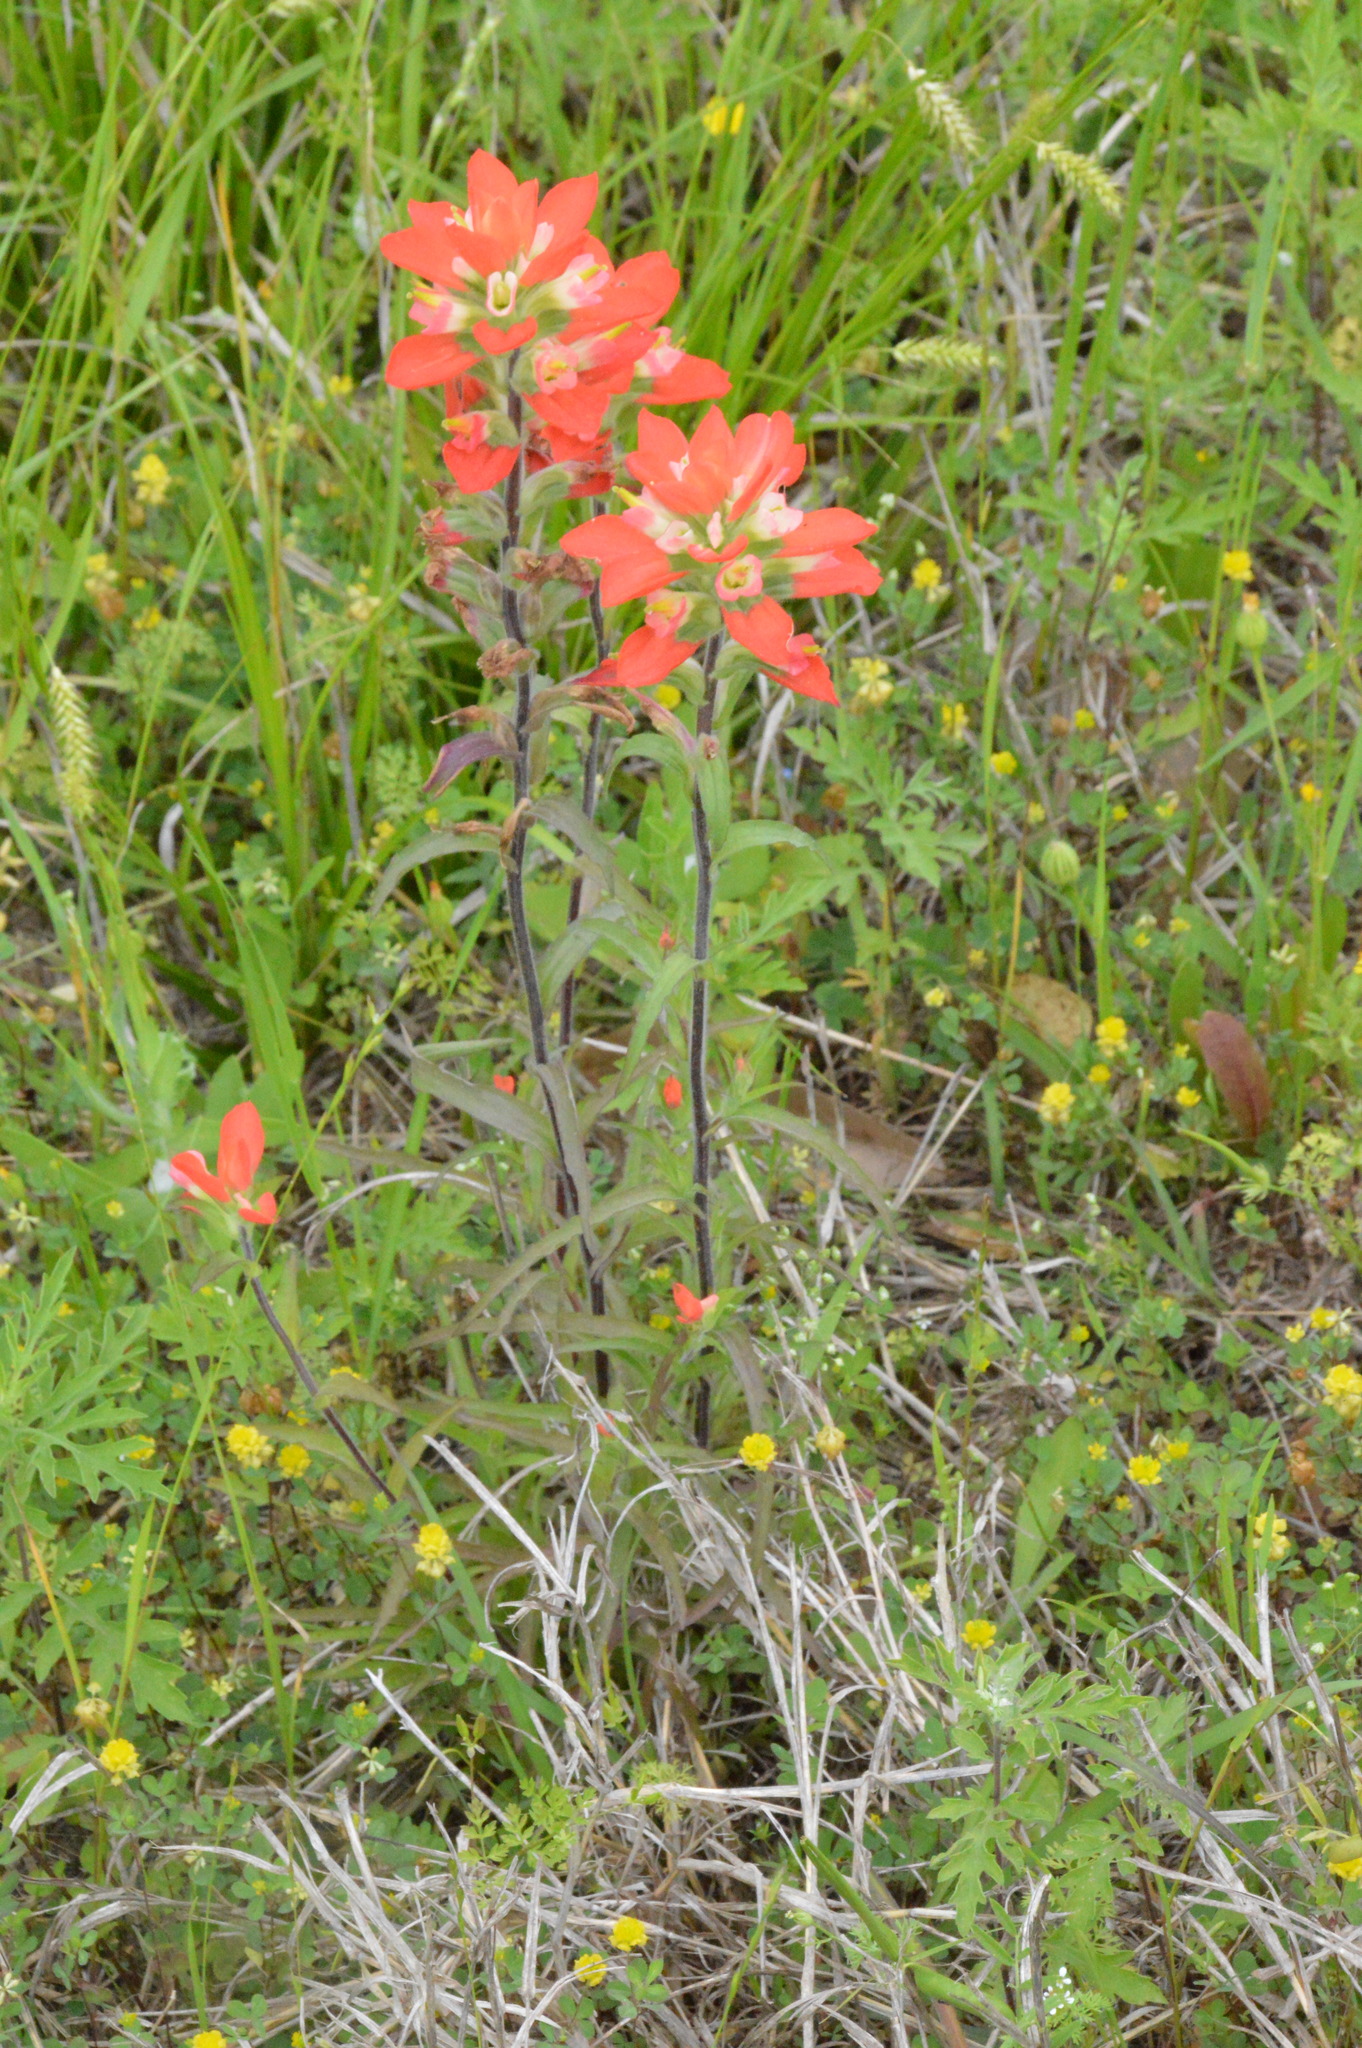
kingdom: Plantae
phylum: Tracheophyta
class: Magnoliopsida
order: Lamiales
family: Orobanchaceae
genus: Castilleja
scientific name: Castilleja indivisa
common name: Texas paintbrush
